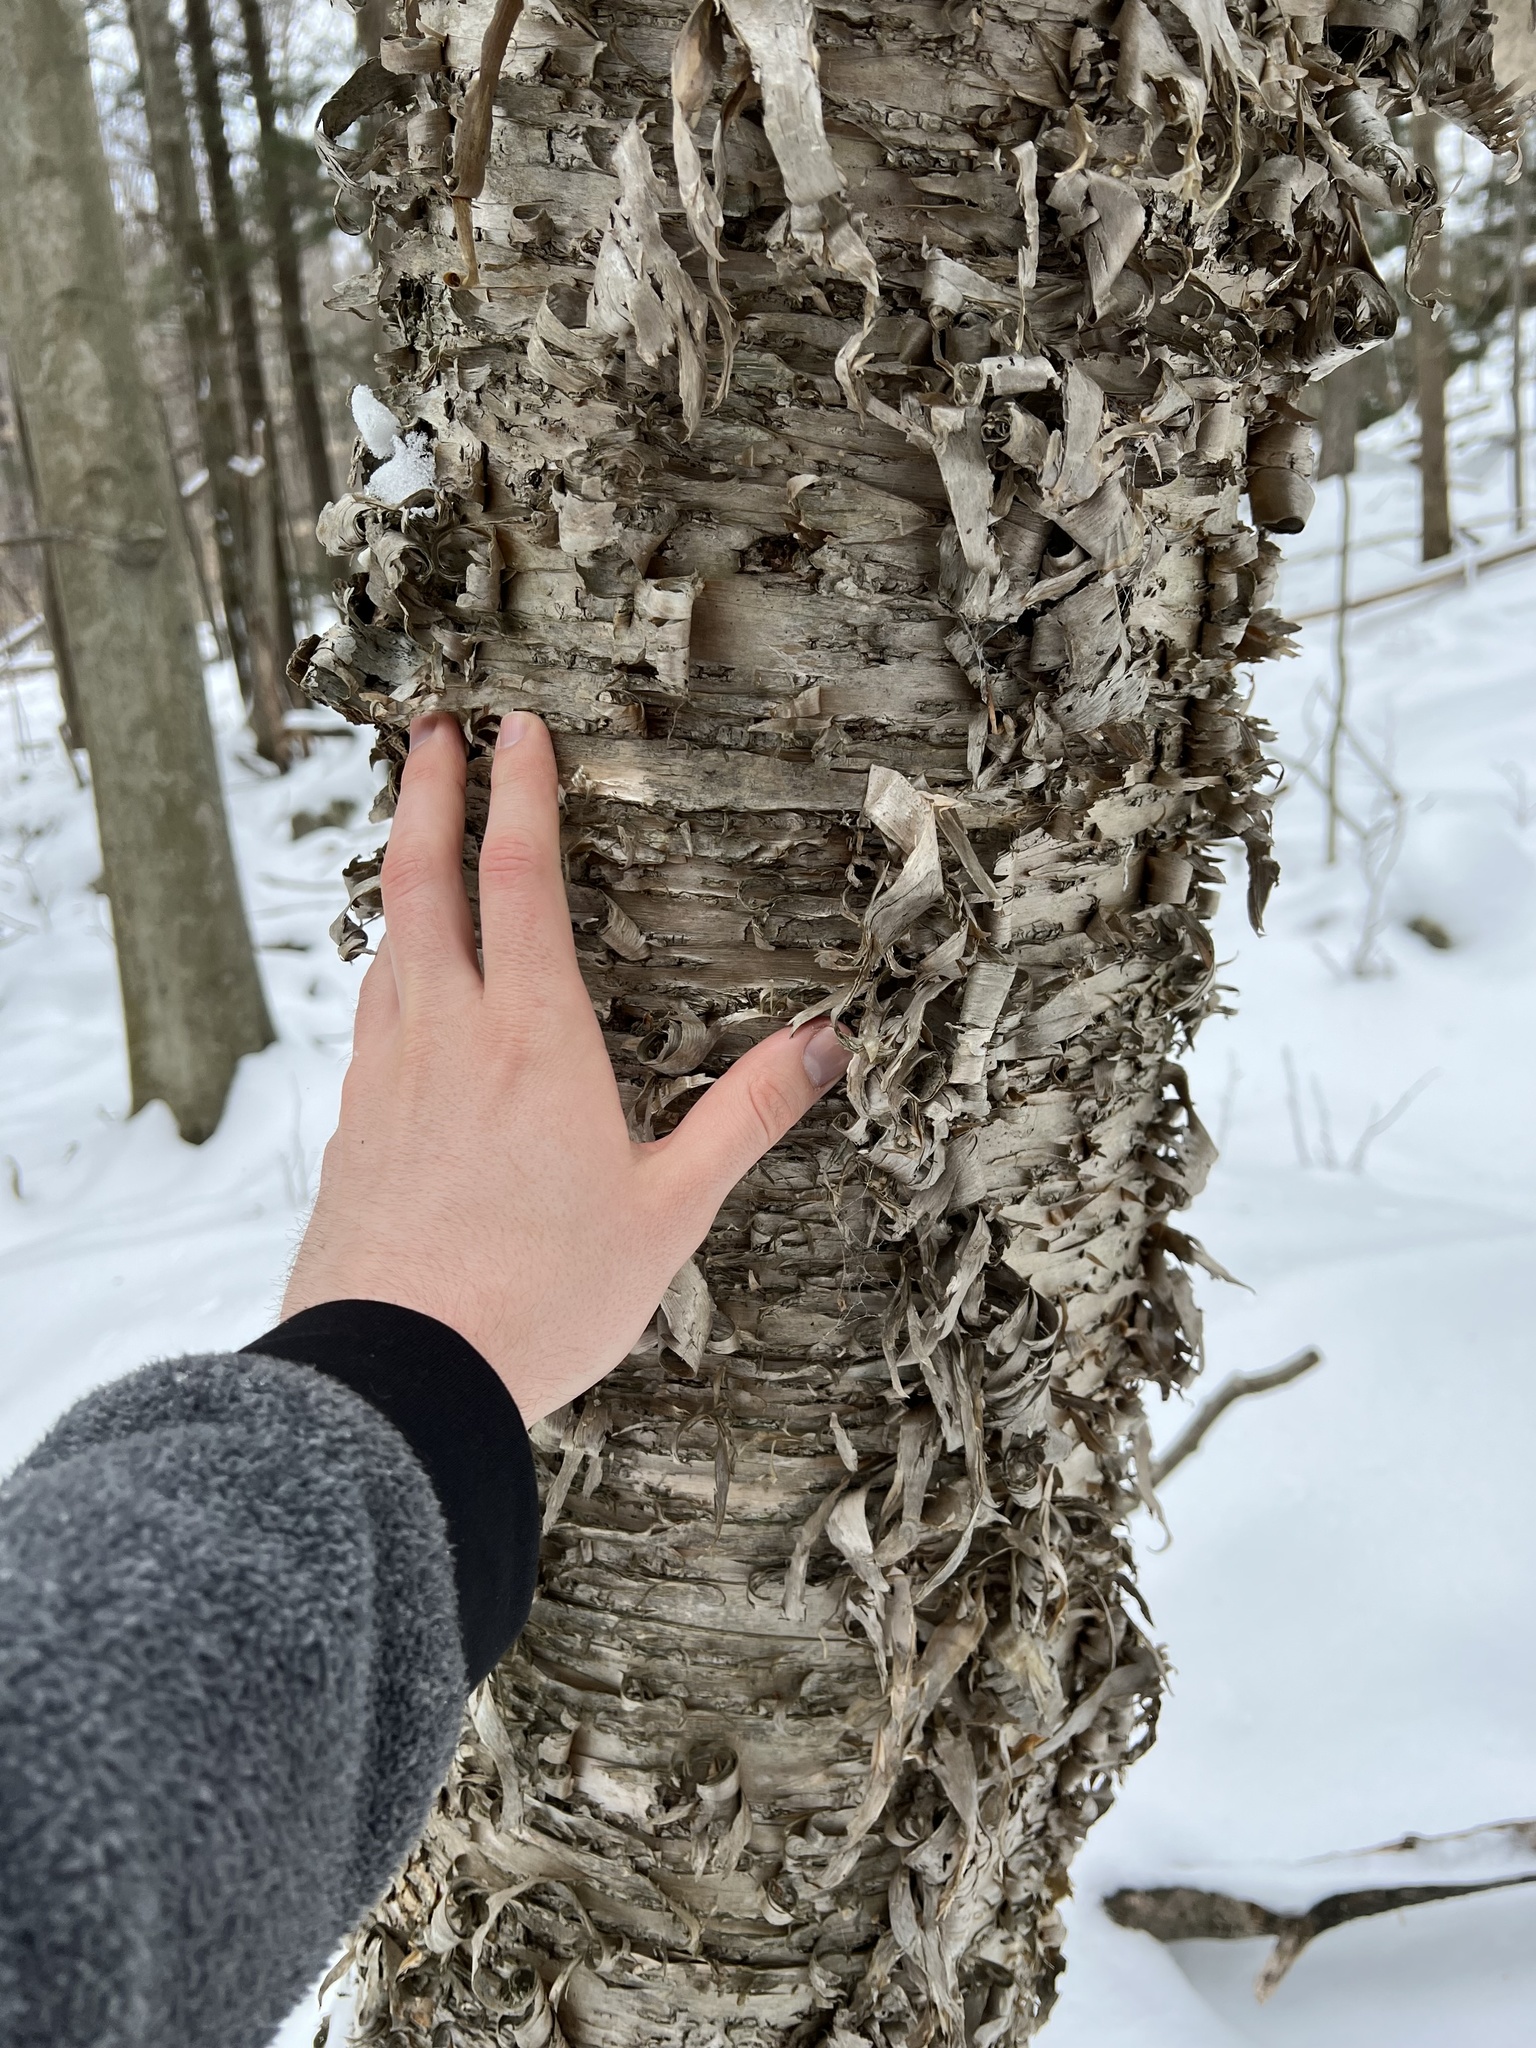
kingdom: Plantae
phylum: Tracheophyta
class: Magnoliopsida
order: Fagales
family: Betulaceae
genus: Betula
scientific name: Betula alleghaniensis
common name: Yellow birch
